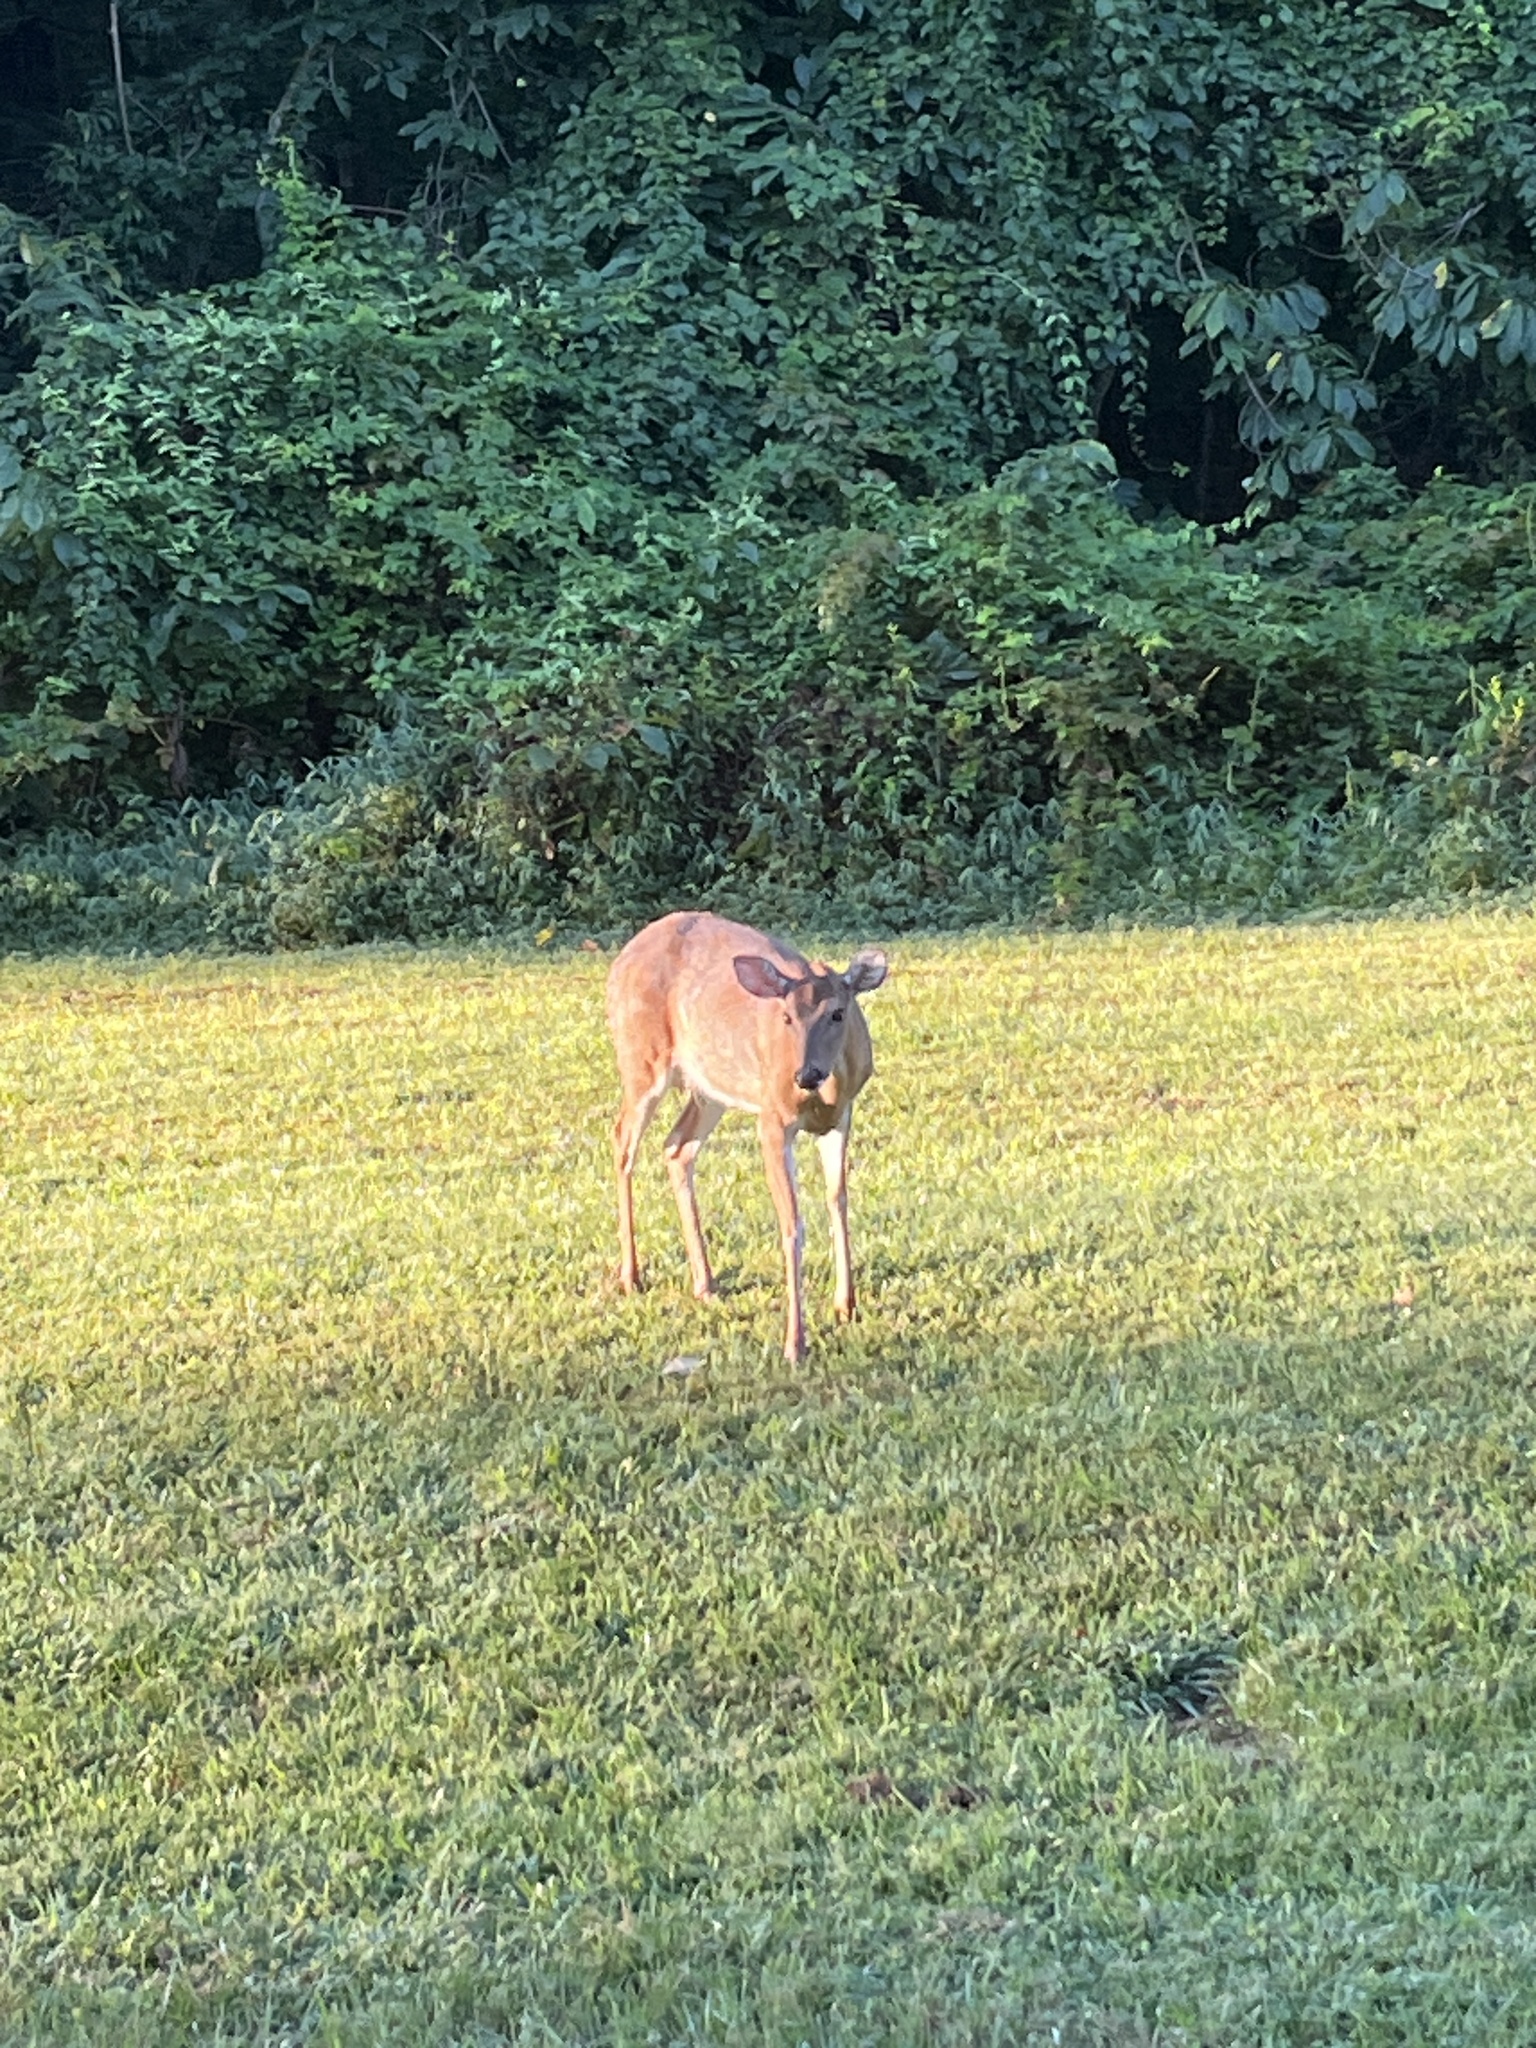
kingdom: Animalia
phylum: Chordata
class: Mammalia
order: Artiodactyla
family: Cervidae
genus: Odocoileus
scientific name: Odocoileus virginianus
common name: White-tailed deer
